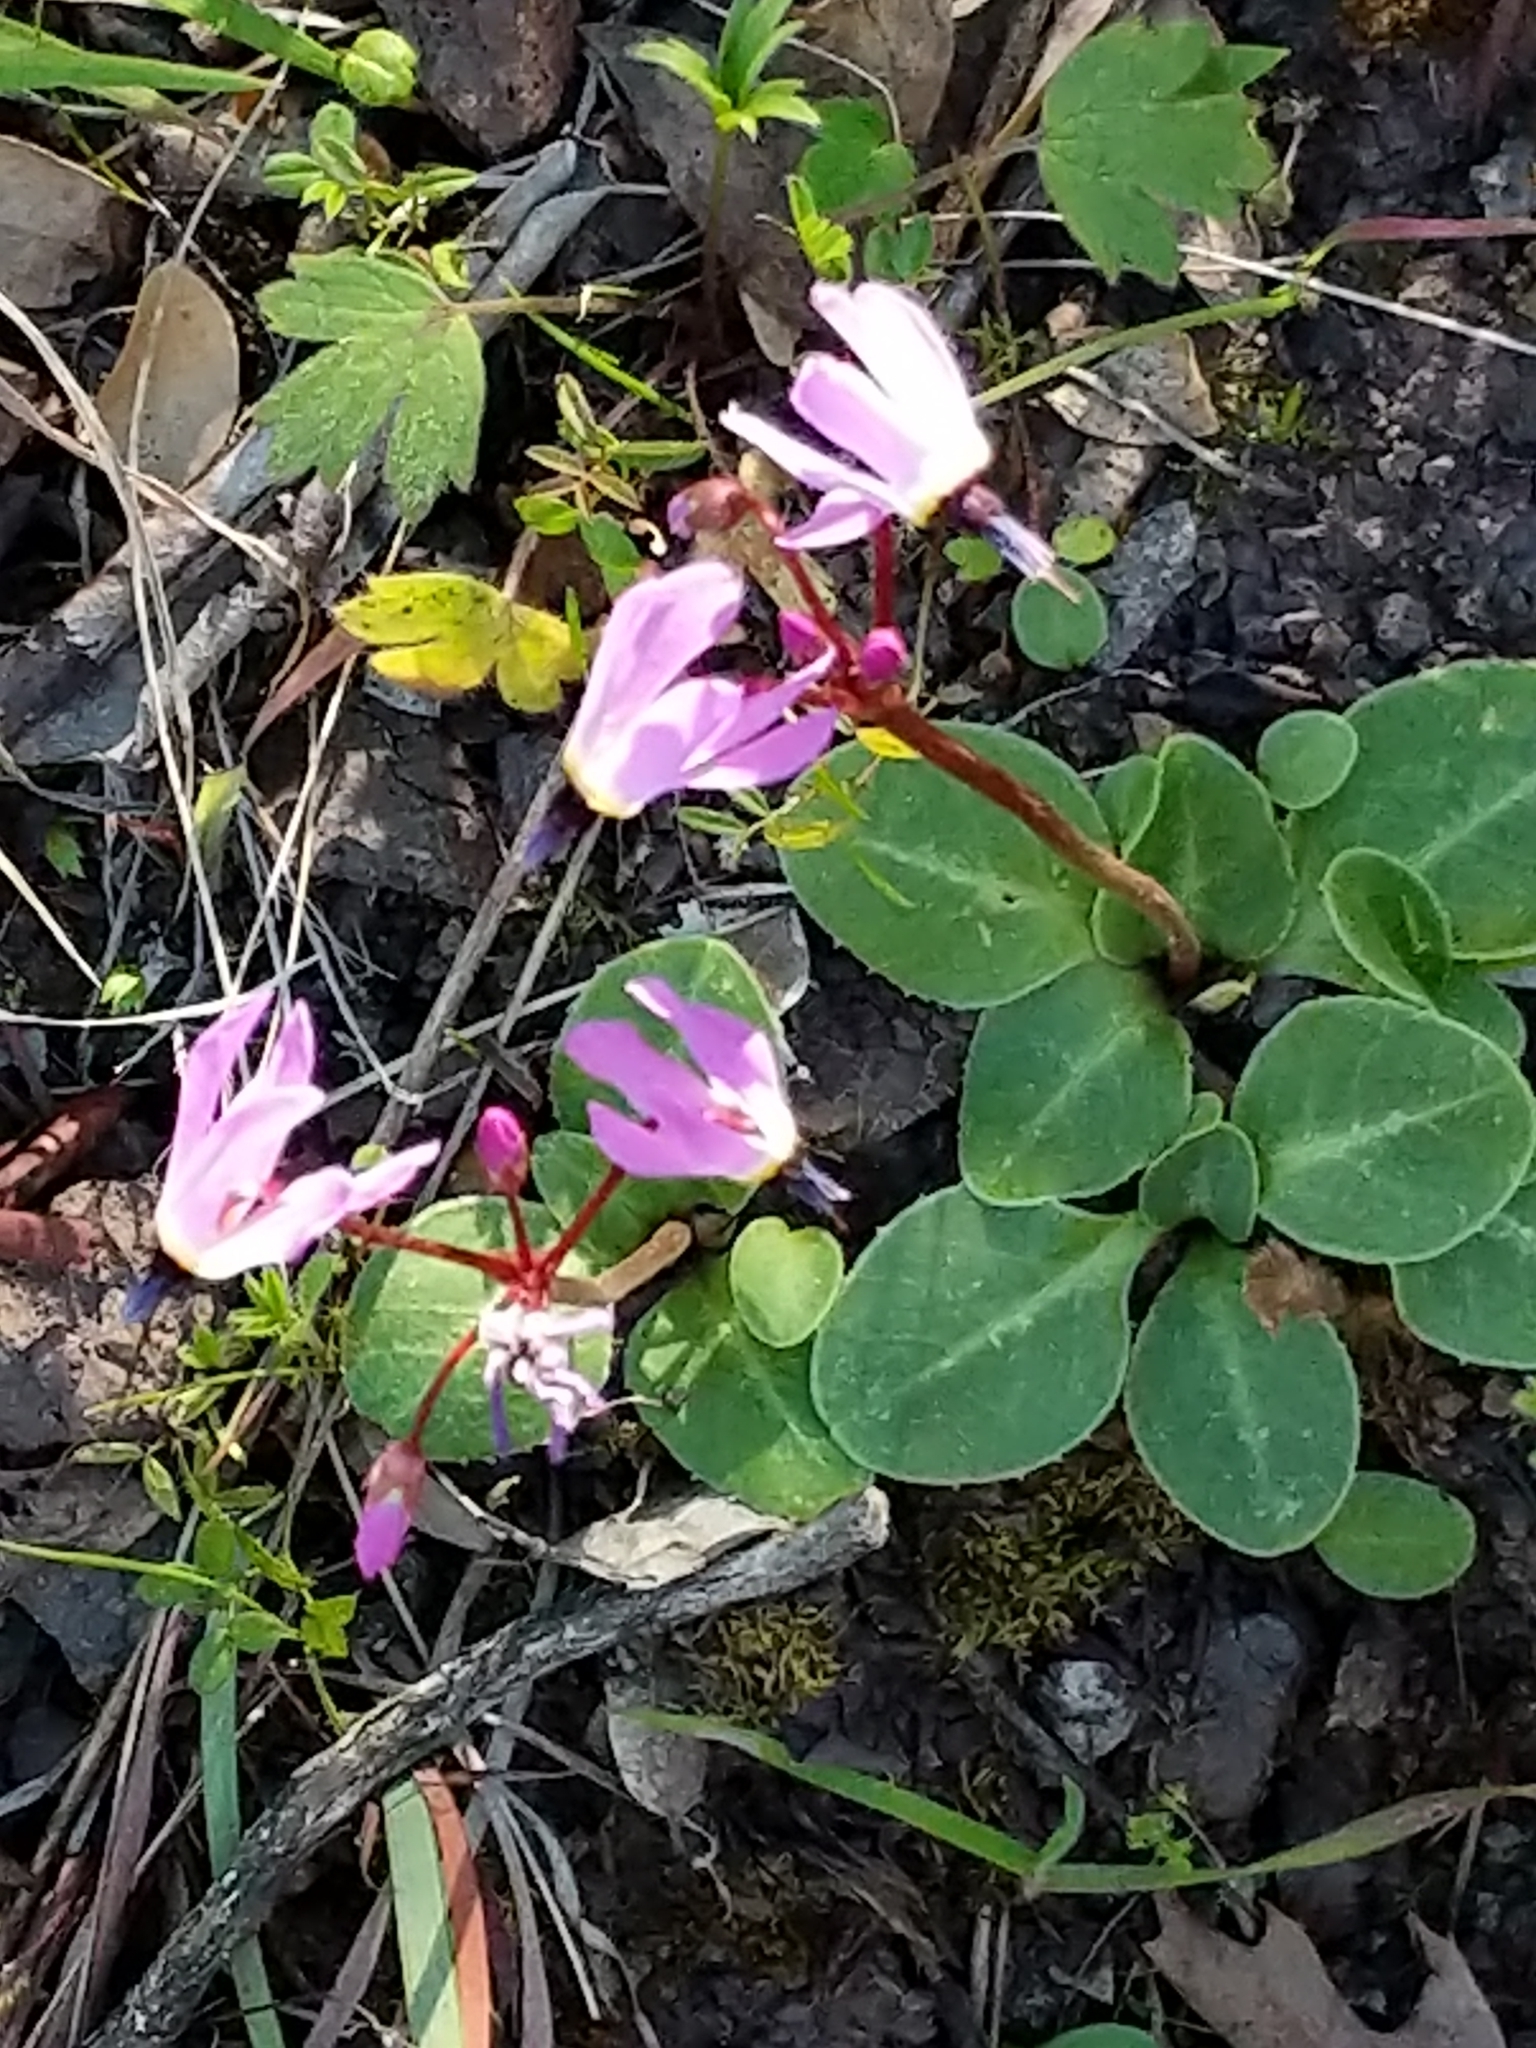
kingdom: Plantae
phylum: Tracheophyta
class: Magnoliopsida
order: Ericales
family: Primulaceae
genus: Dodecatheon
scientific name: Dodecatheon hendersonii
